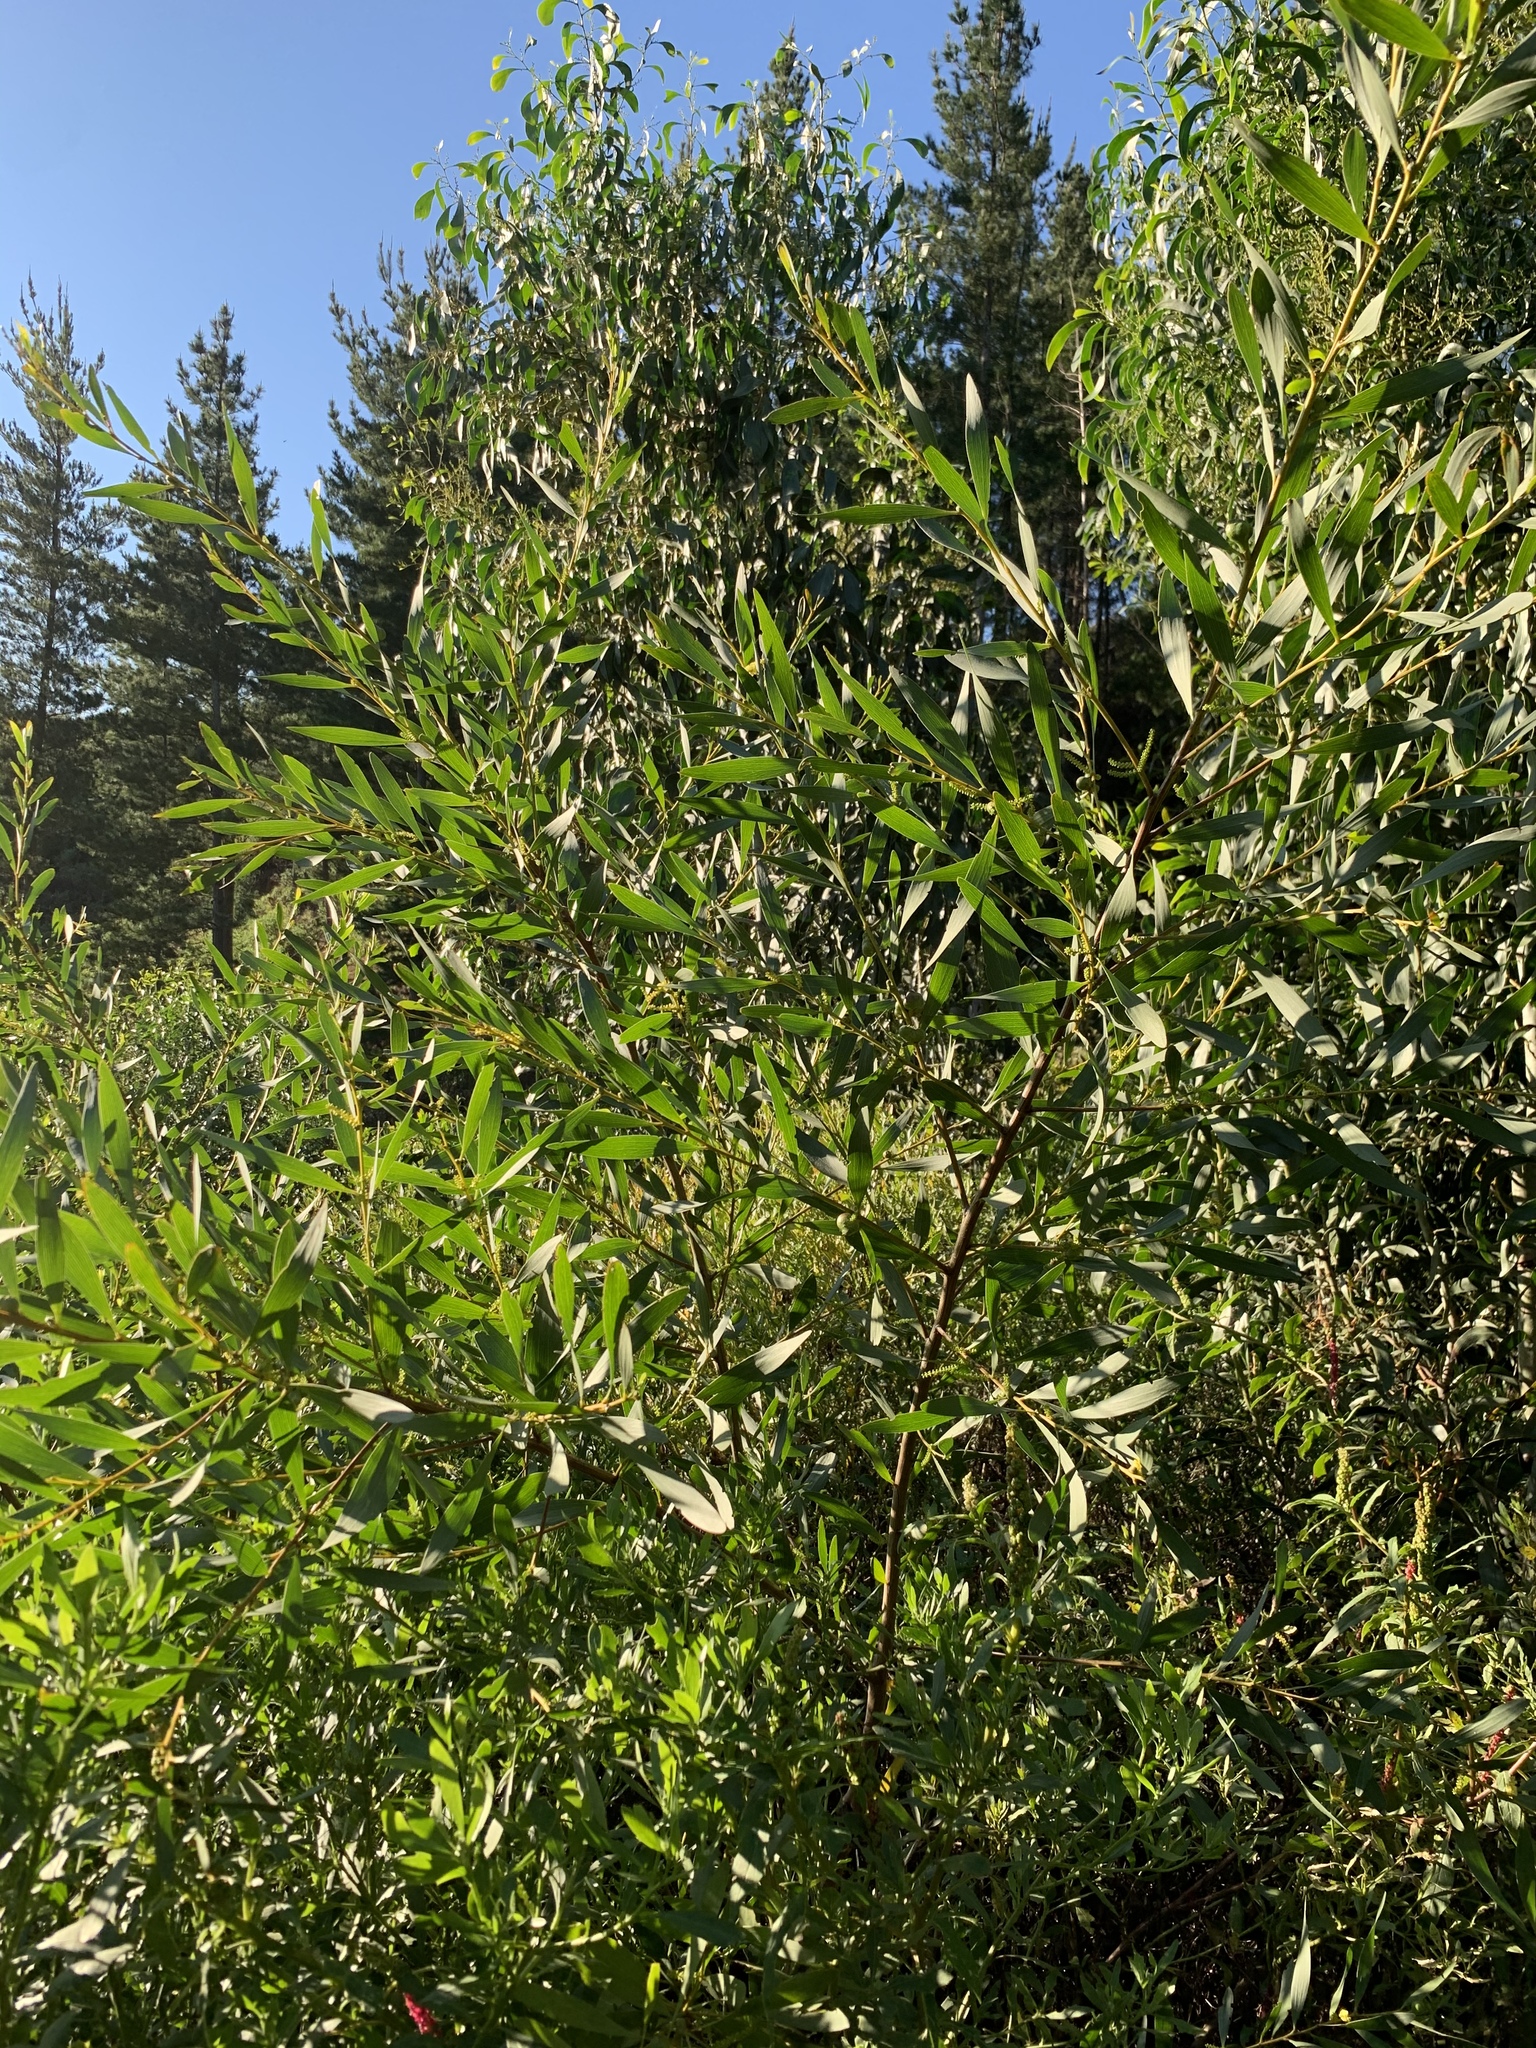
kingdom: Plantae
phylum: Tracheophyta
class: Magnoliopsida
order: Fabales
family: Fabaceae
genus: Acacia
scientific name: Acacia longifolia
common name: Sydney golden wattle
